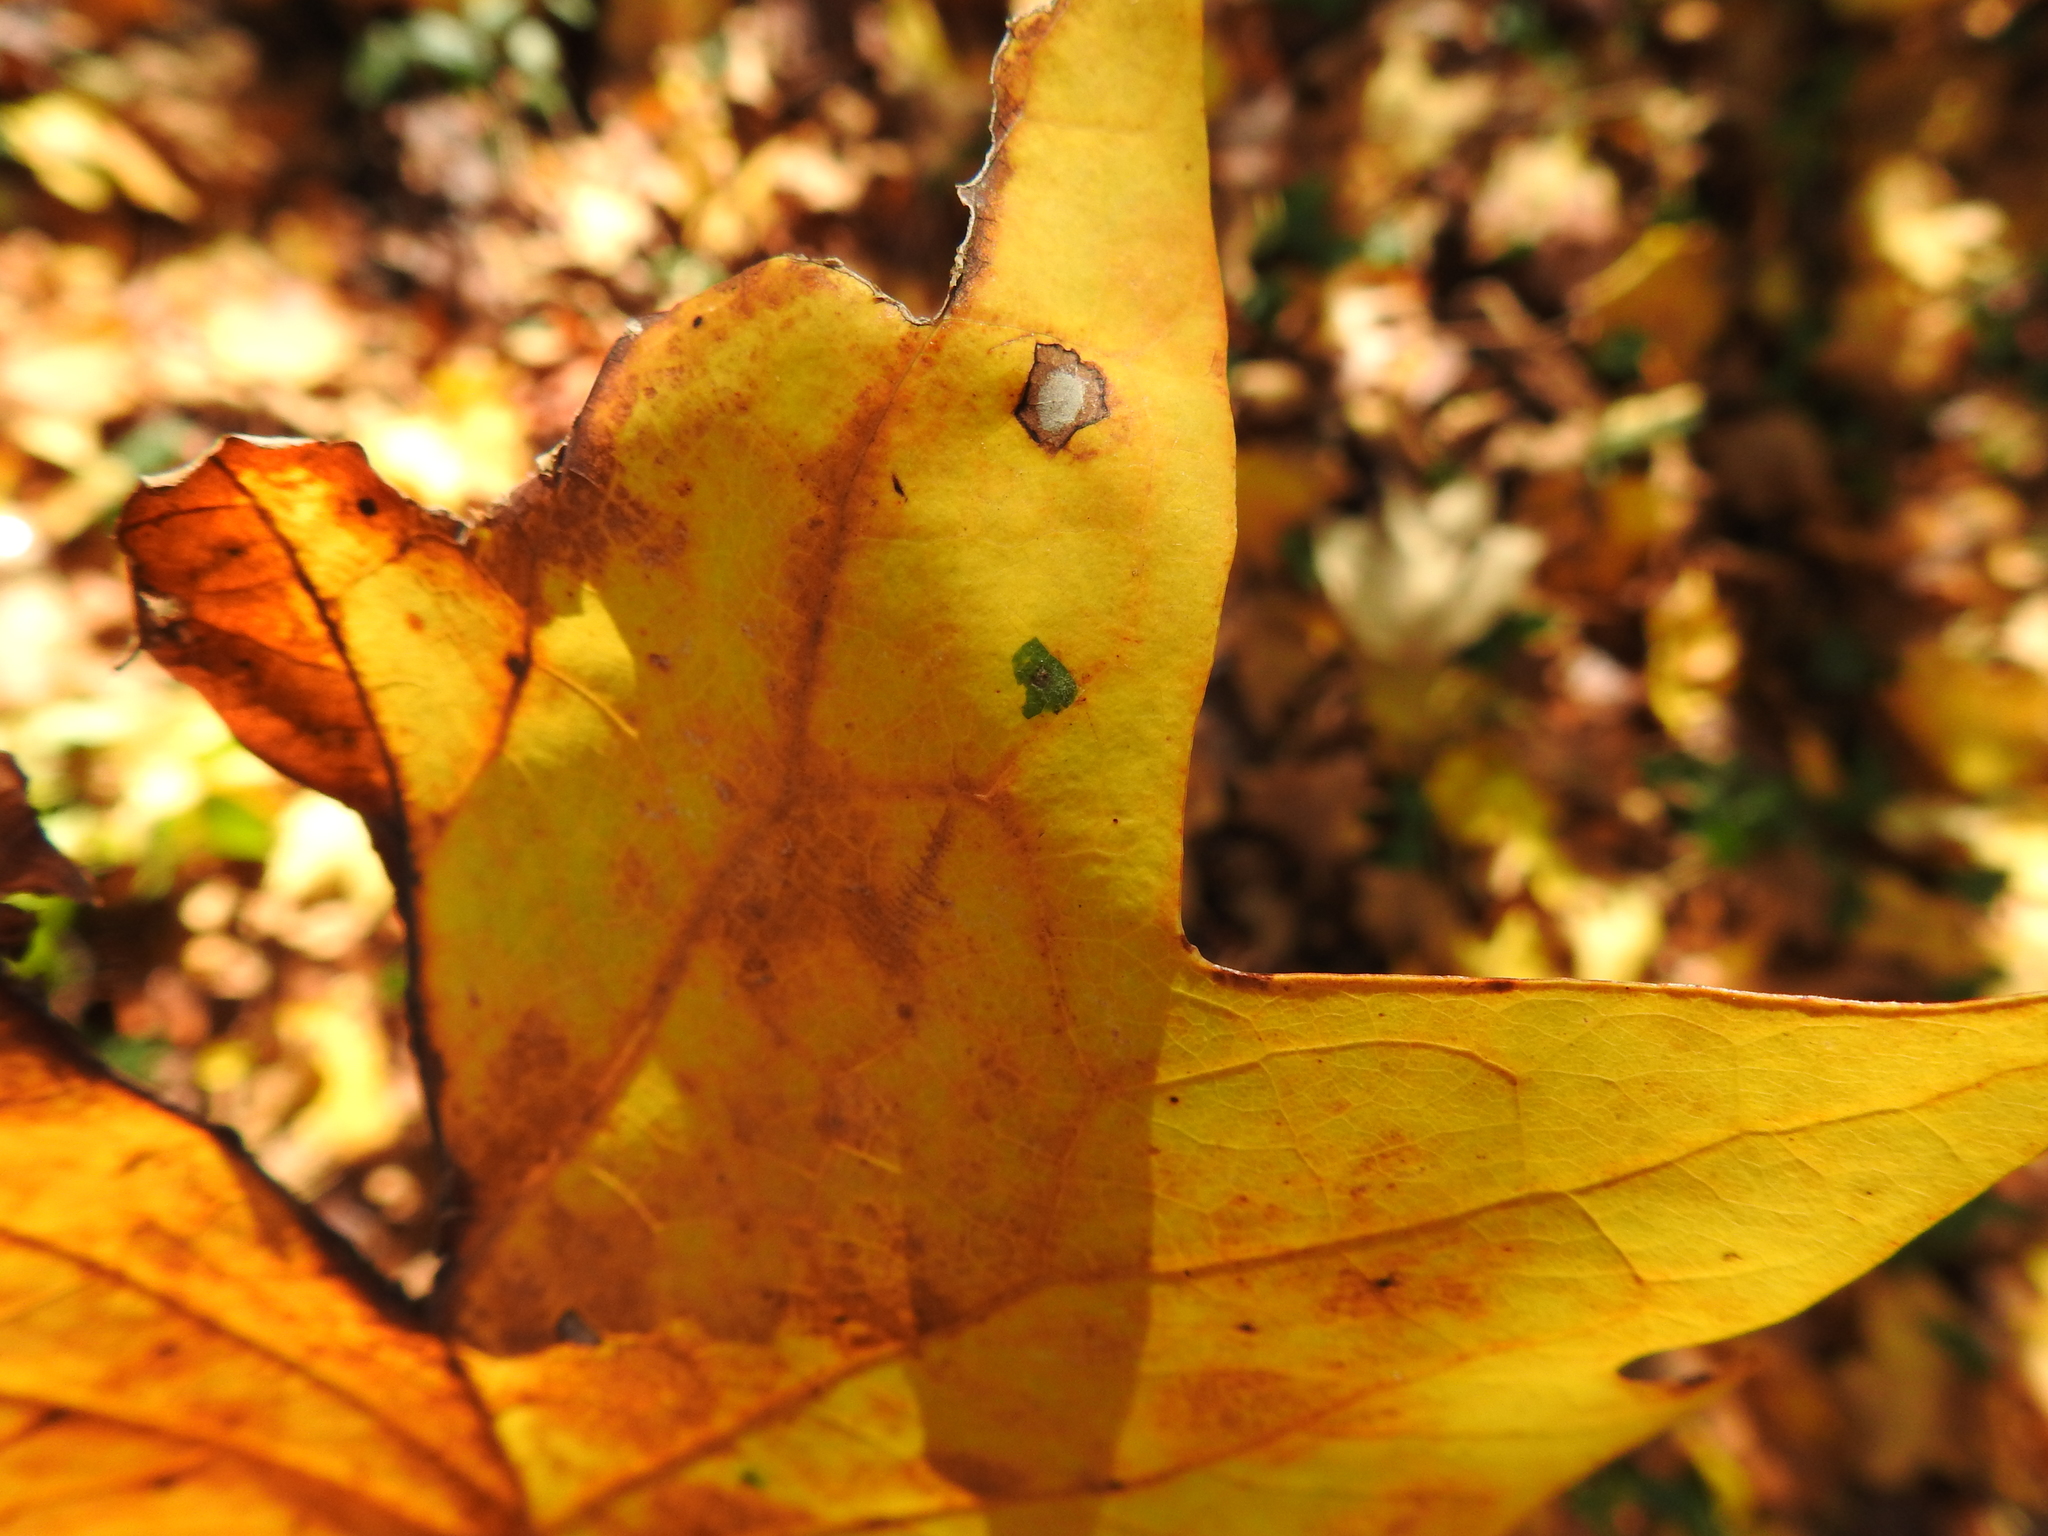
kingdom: Animalia
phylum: Arthropoda
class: Insecta
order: Diptera
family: Cecidomyiidae
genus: Resseliella
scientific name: Resseliella liriodendri
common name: Tulip tree leaf spot gall midge
